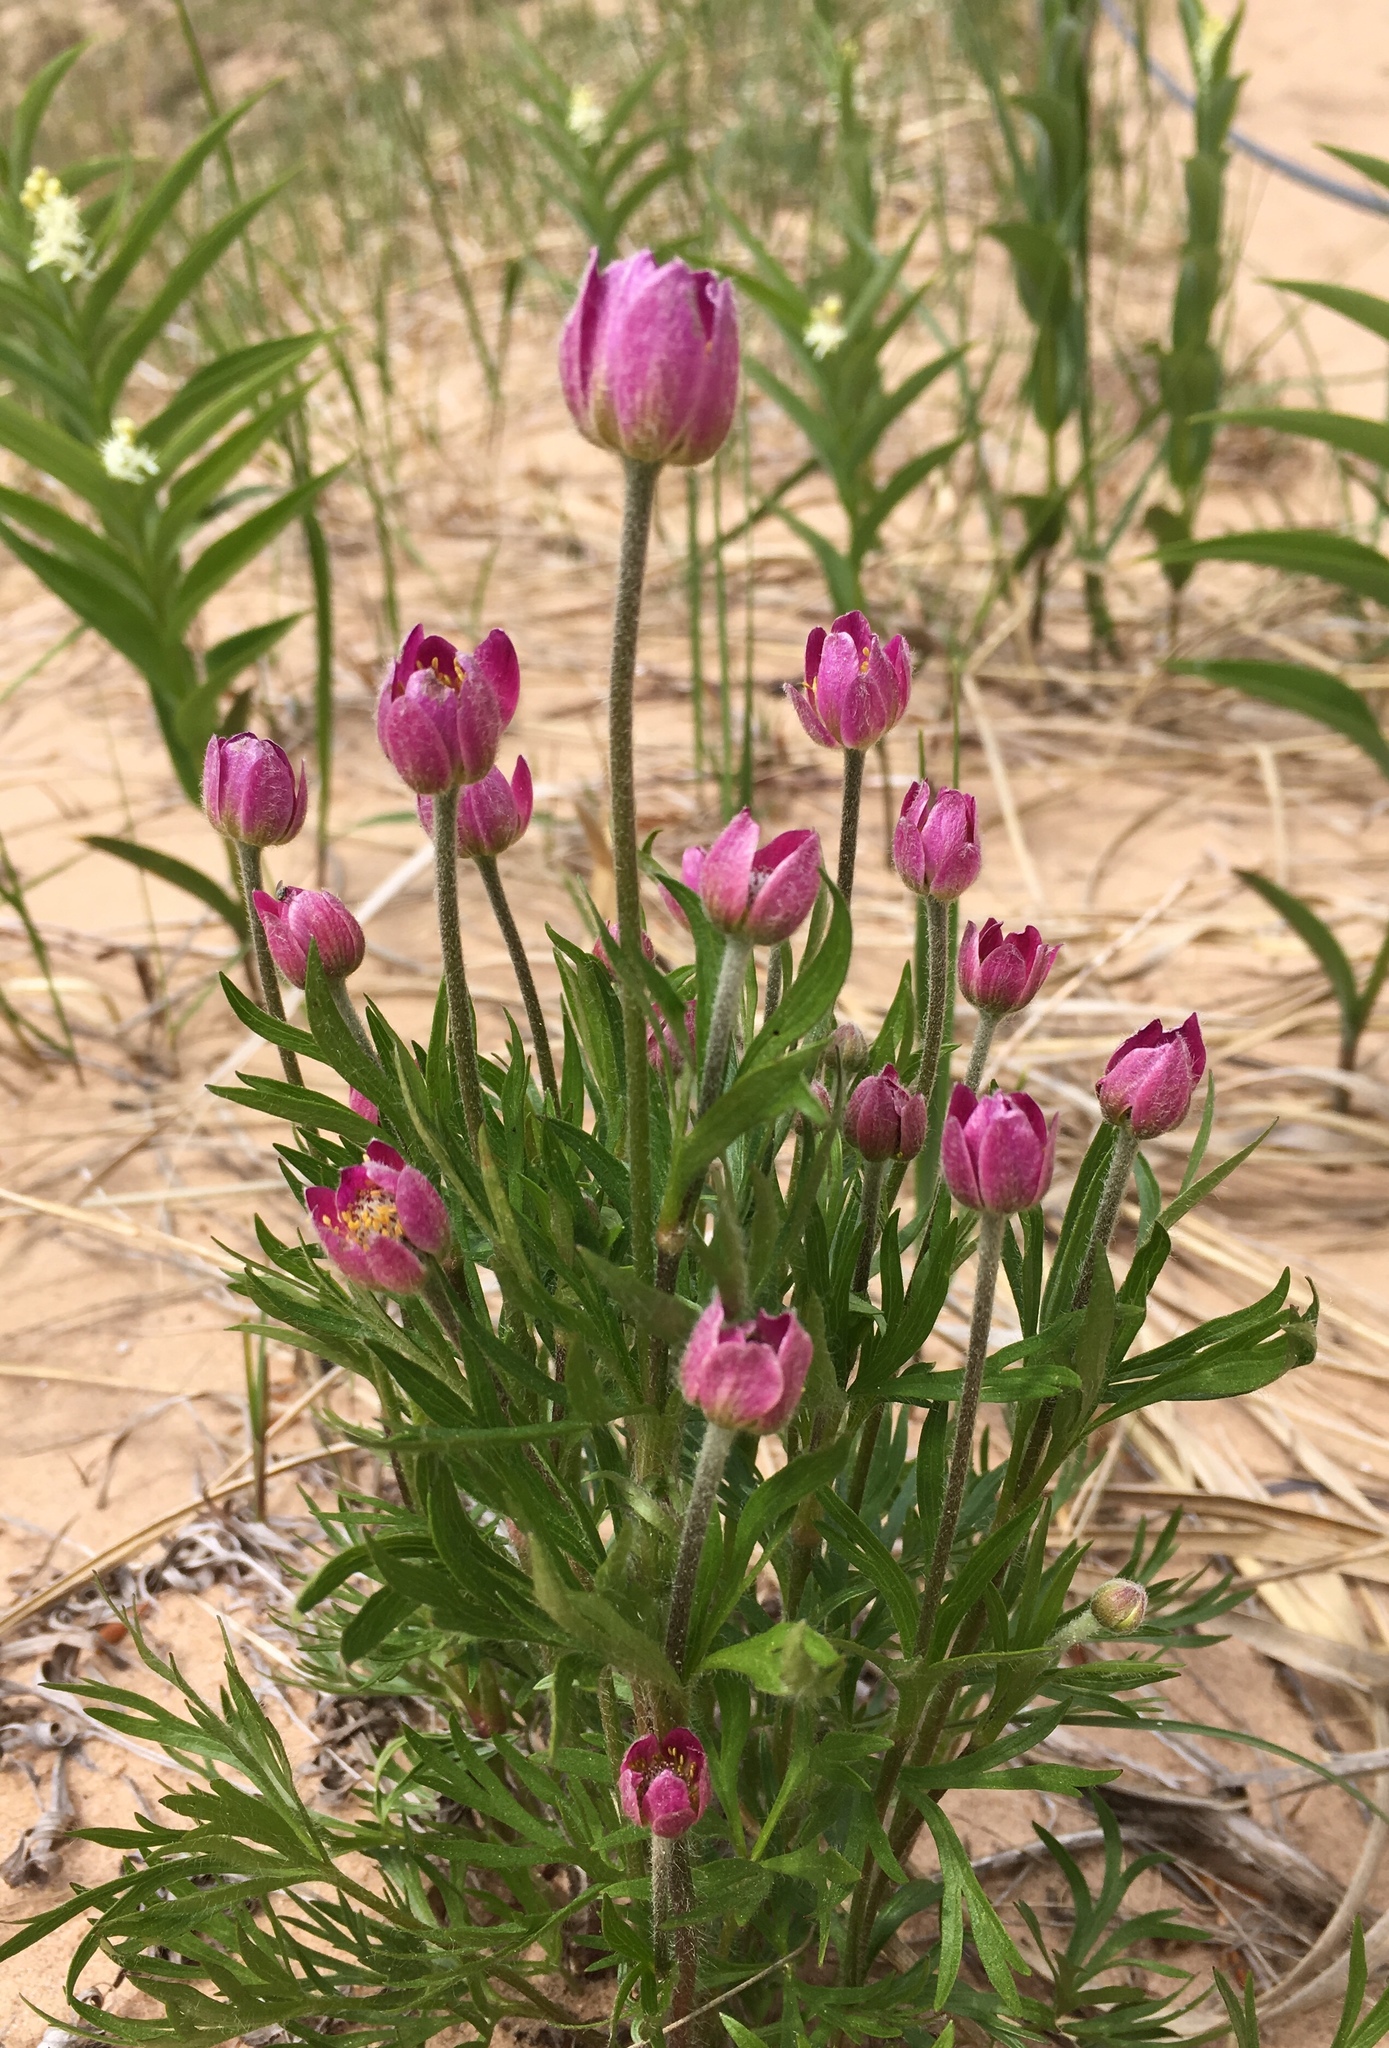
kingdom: Plantae
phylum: Tracheophyta
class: Magnoliopsida
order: Ranunculales
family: Ranunculaceae
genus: Anemone
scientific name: Anemone multifida
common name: Bird's-foot anemone
